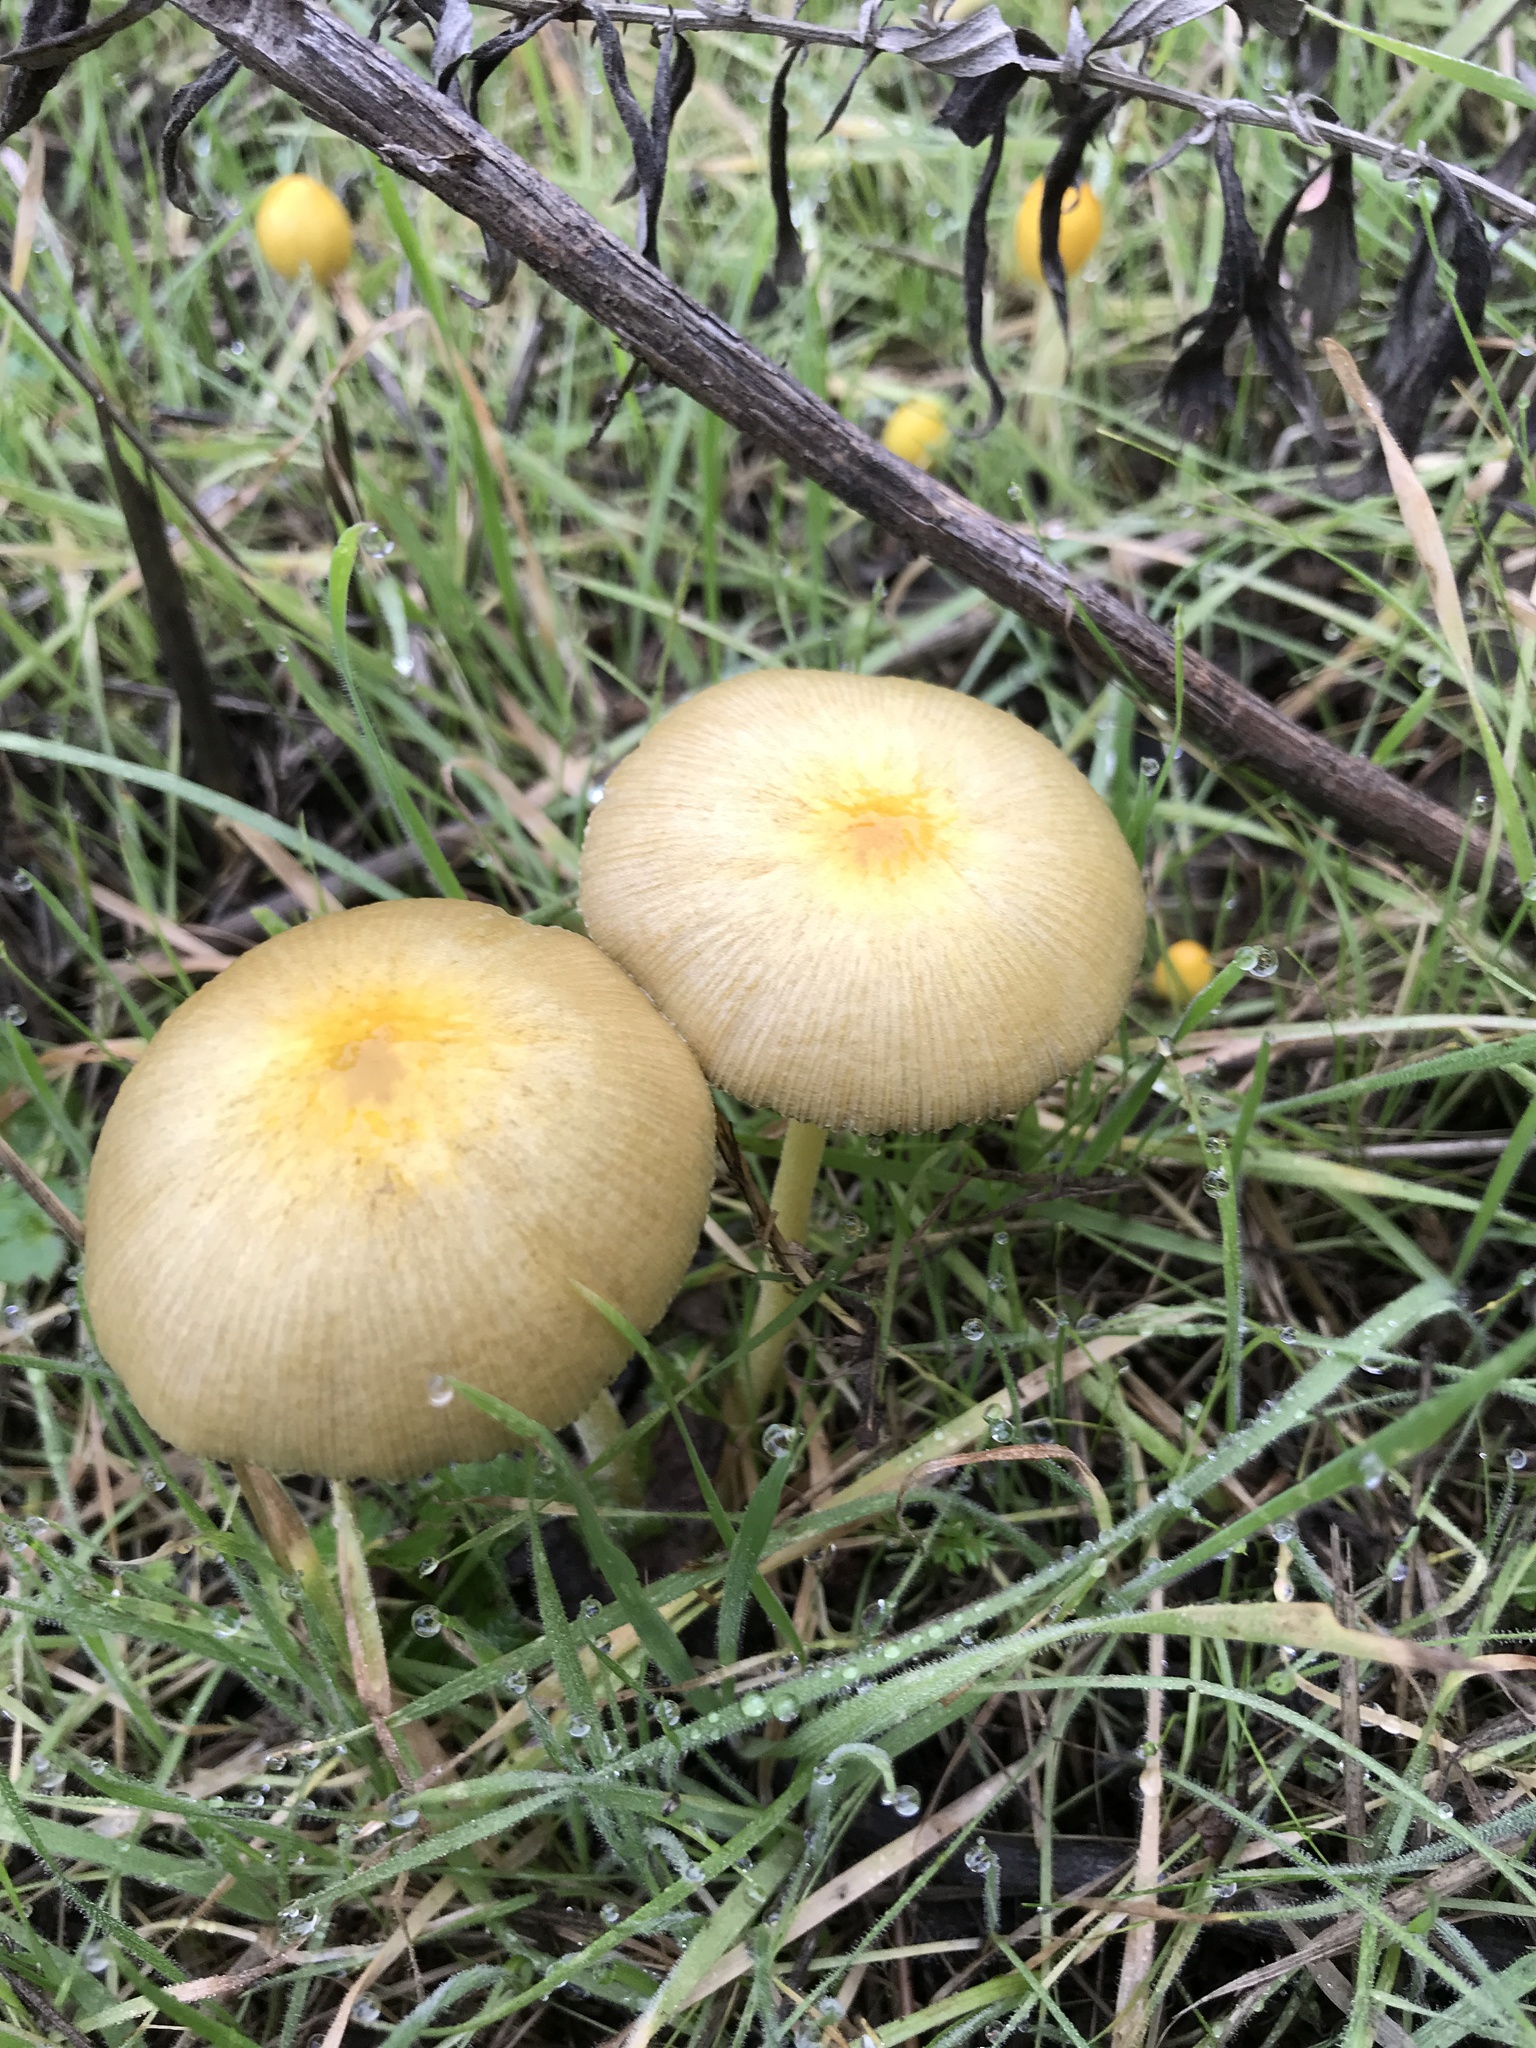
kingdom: Fungi
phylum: Basidiomycota
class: Agaricomycetes
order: Agaricales
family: Bolbitiaceae
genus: Bolbitius
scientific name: Bolbitius titubans
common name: Yellow fieldcap
